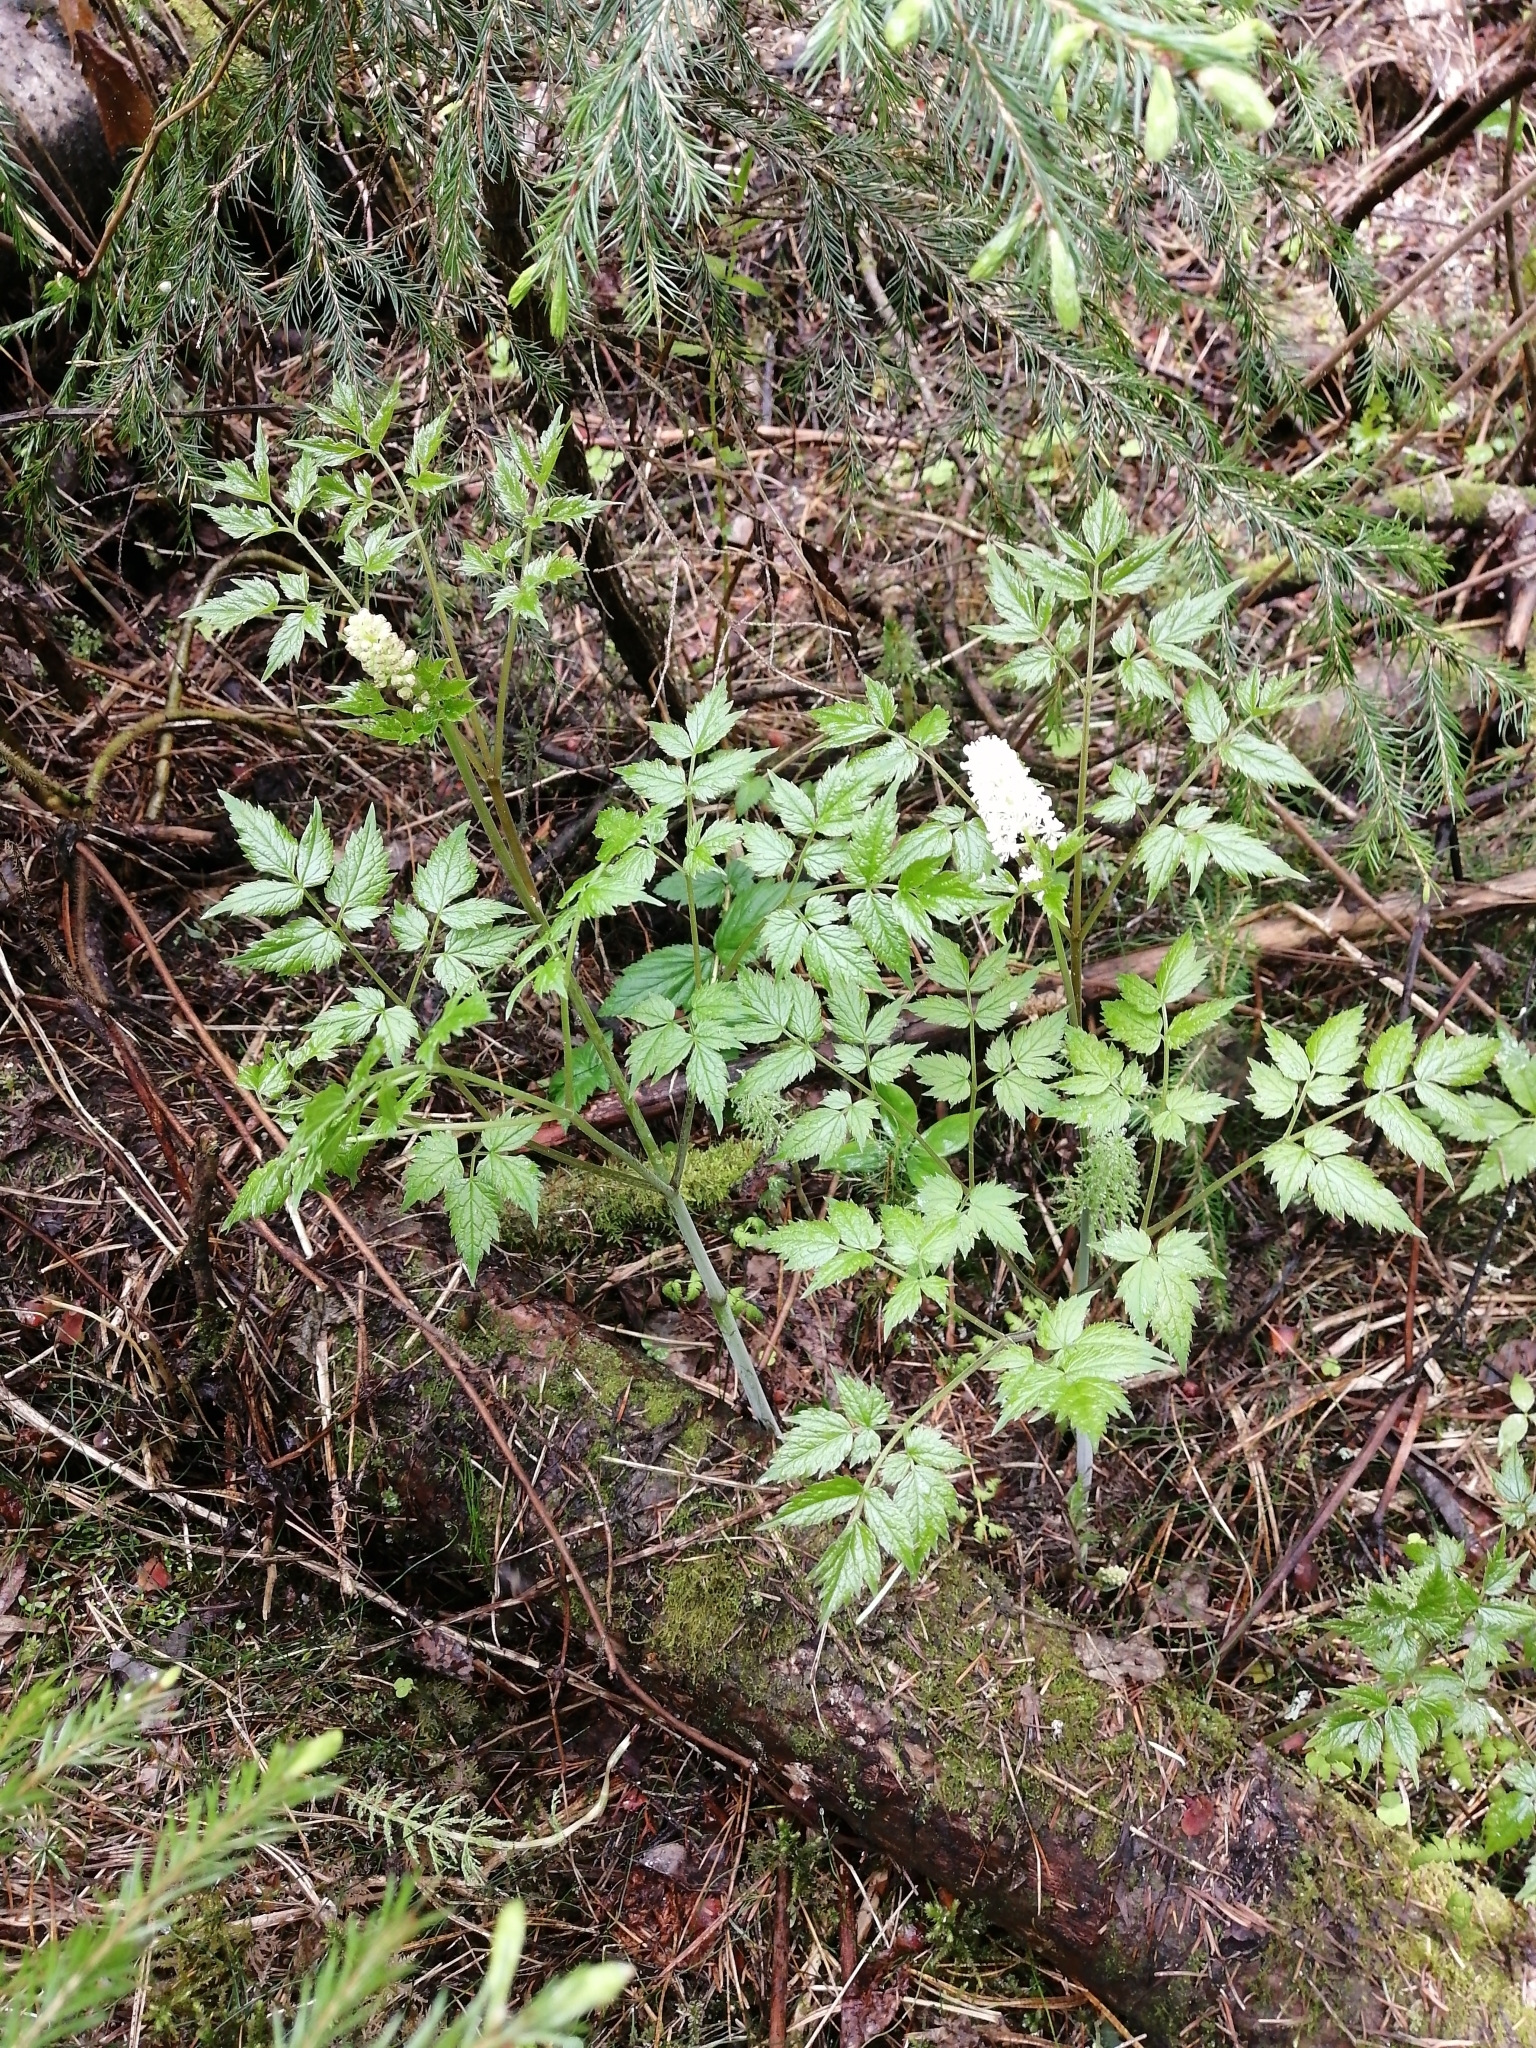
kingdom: Plantae
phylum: Tracheophyta
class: Magnoliopsida
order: Ranunculales
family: Ranunculaceae
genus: Actaea
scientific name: Actaea erythrocarpa
